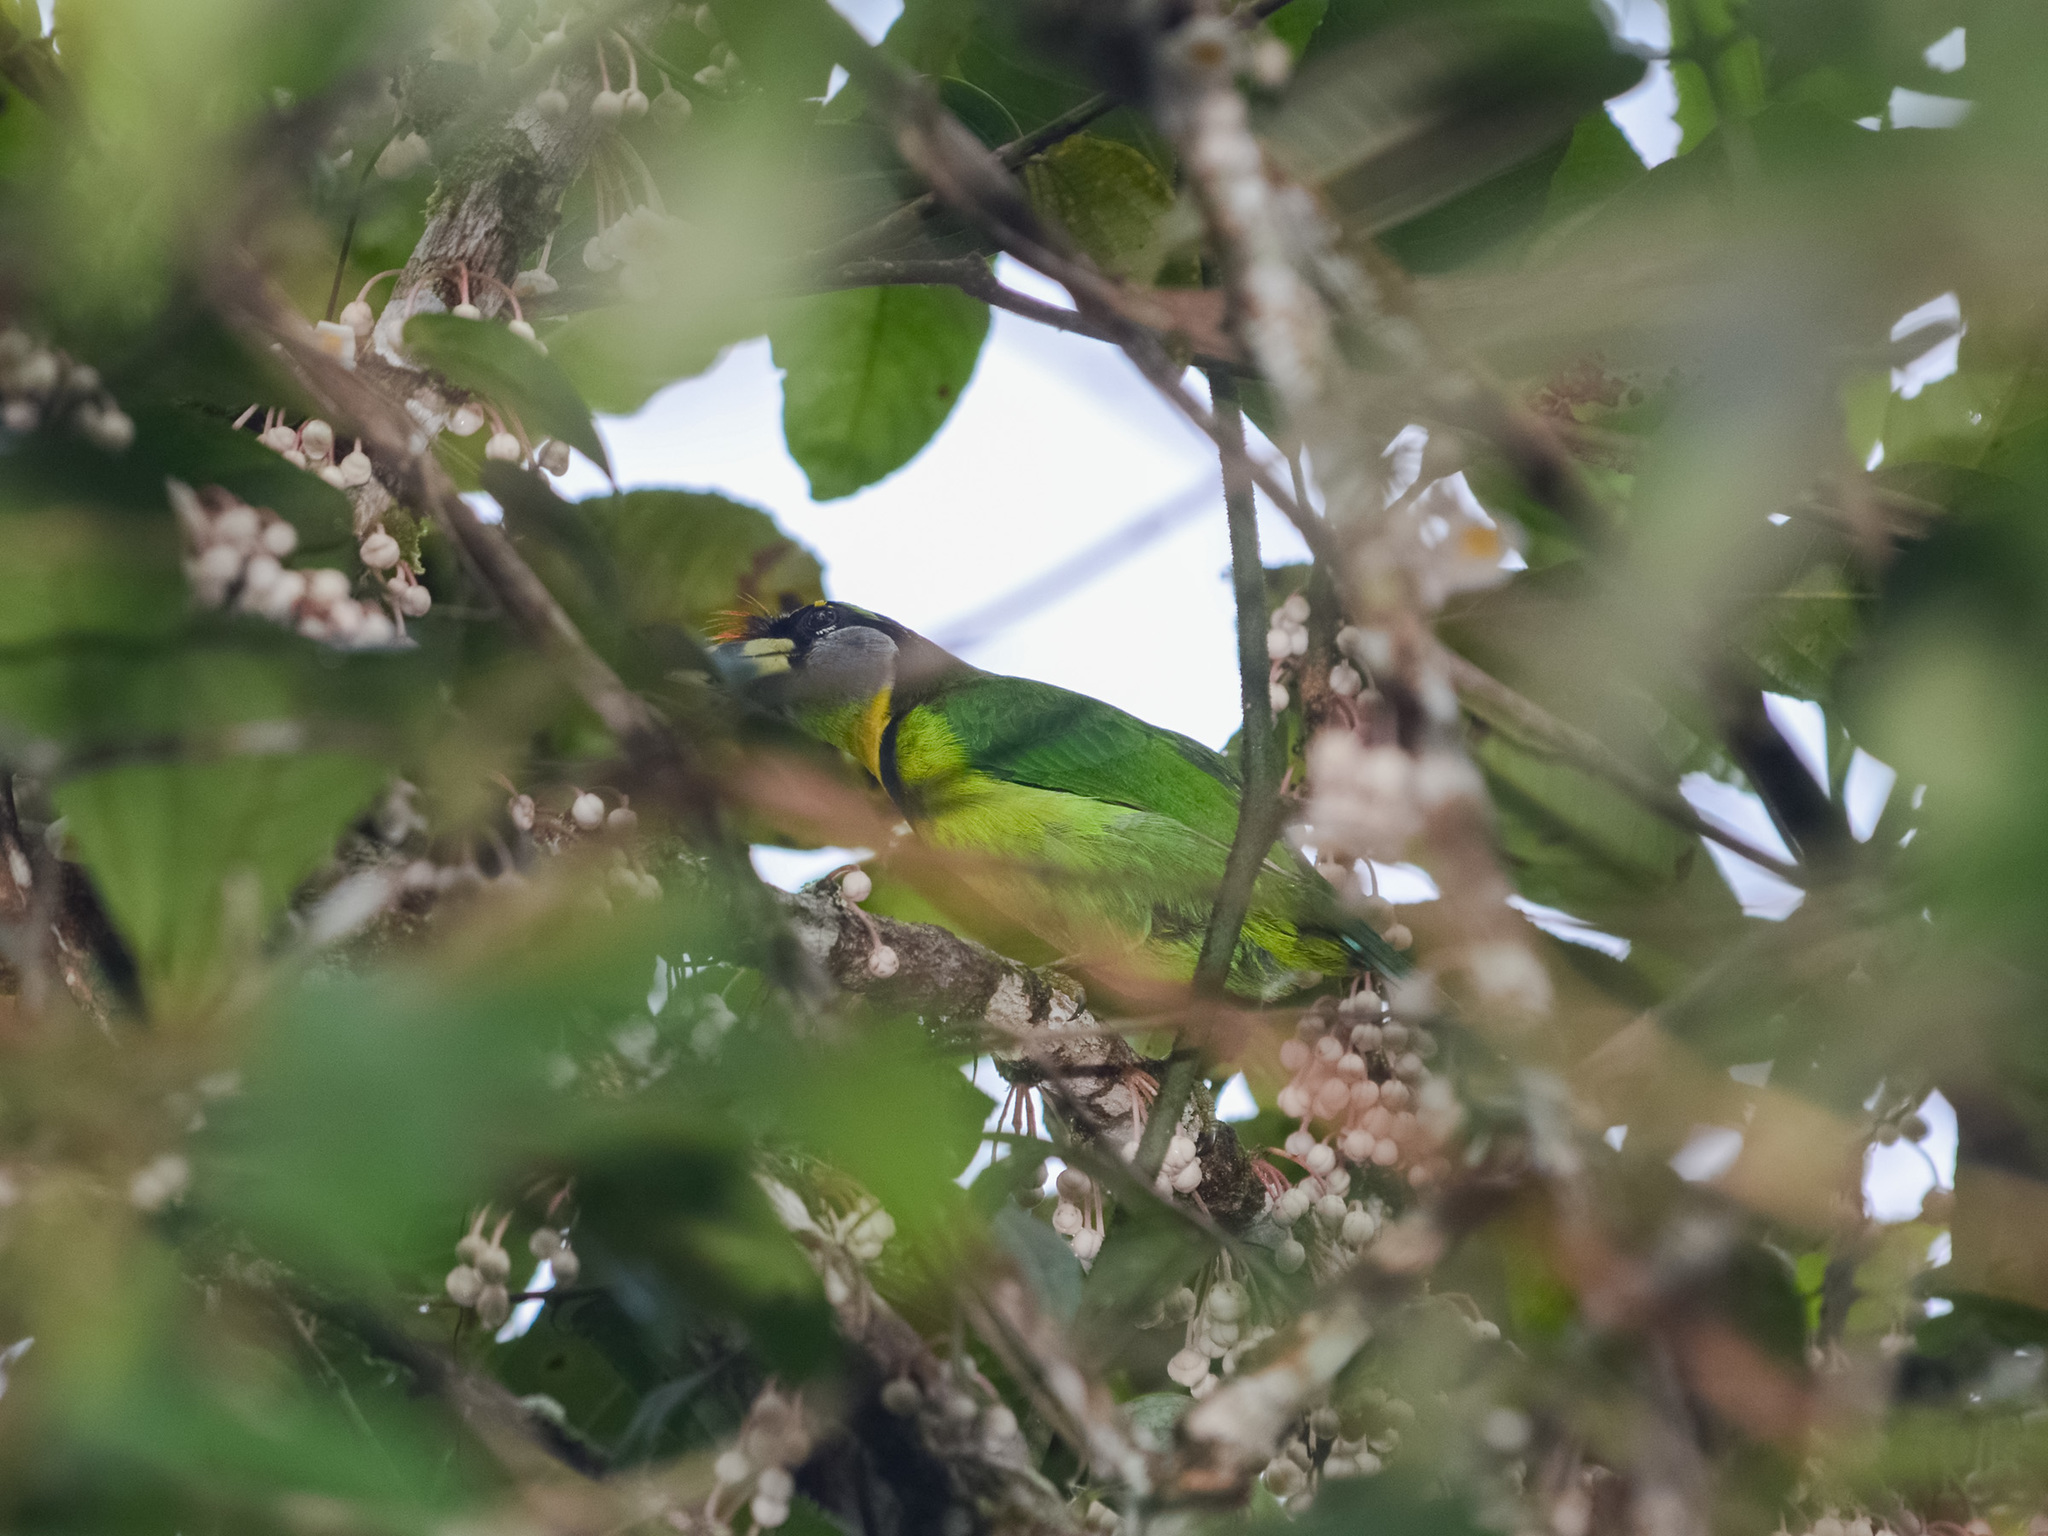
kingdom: Animalia
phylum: Chordata
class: Aves
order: Piciformes
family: Megalaimidae
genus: Psilopogon
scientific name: Psilopogon pyrolophus
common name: Fire-tufted barbet
